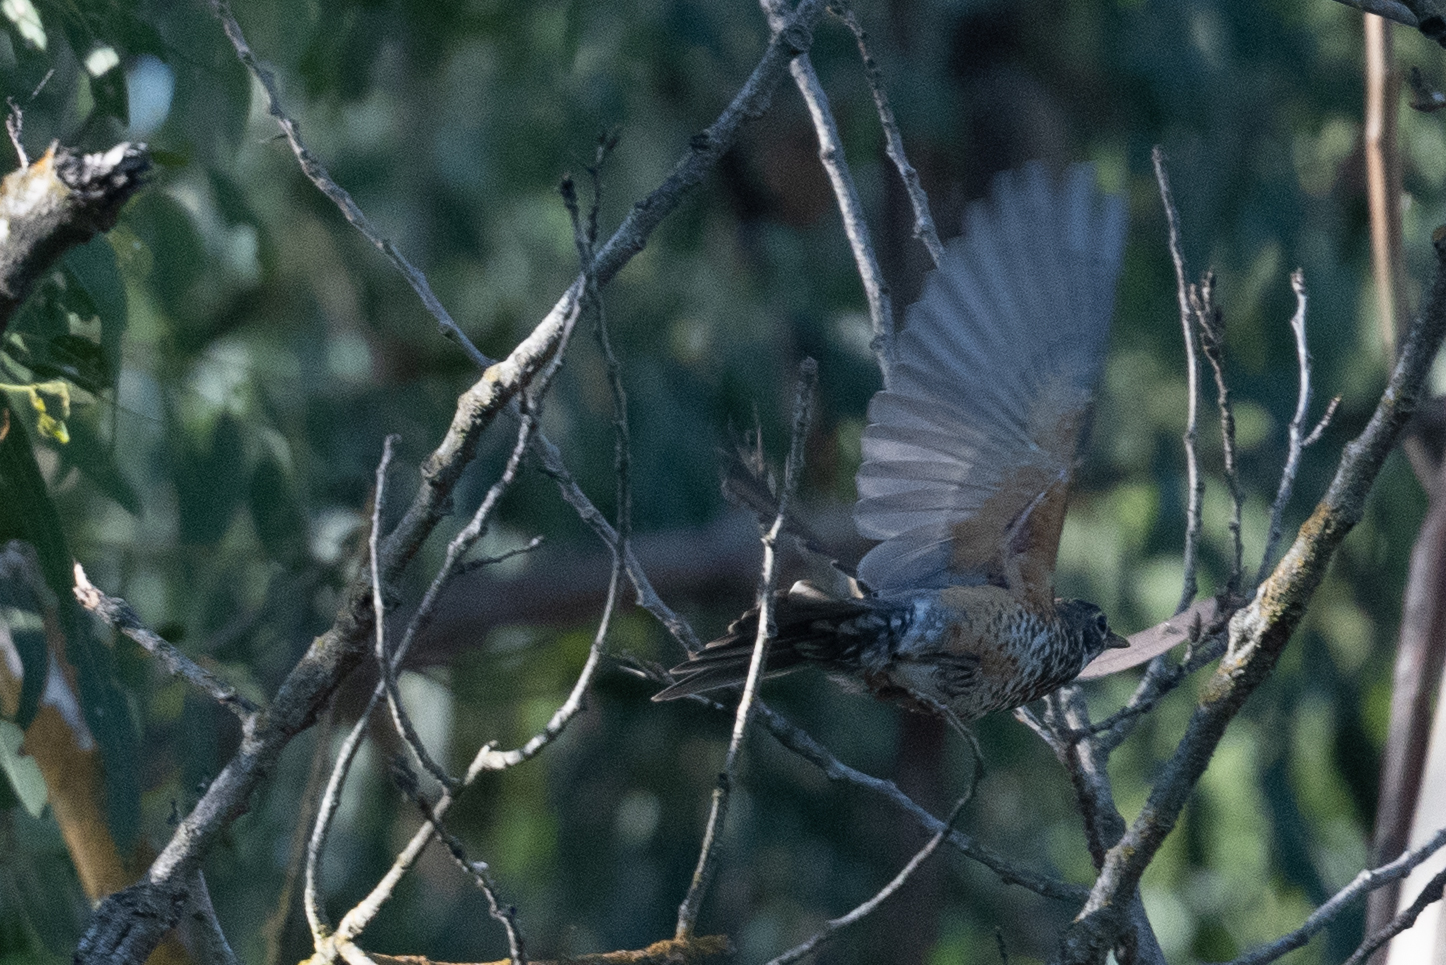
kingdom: Animalia
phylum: Chordata
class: Aves
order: Passeriformes
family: Turdidae
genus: Turdus
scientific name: Turdus migratorius
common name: American robin
